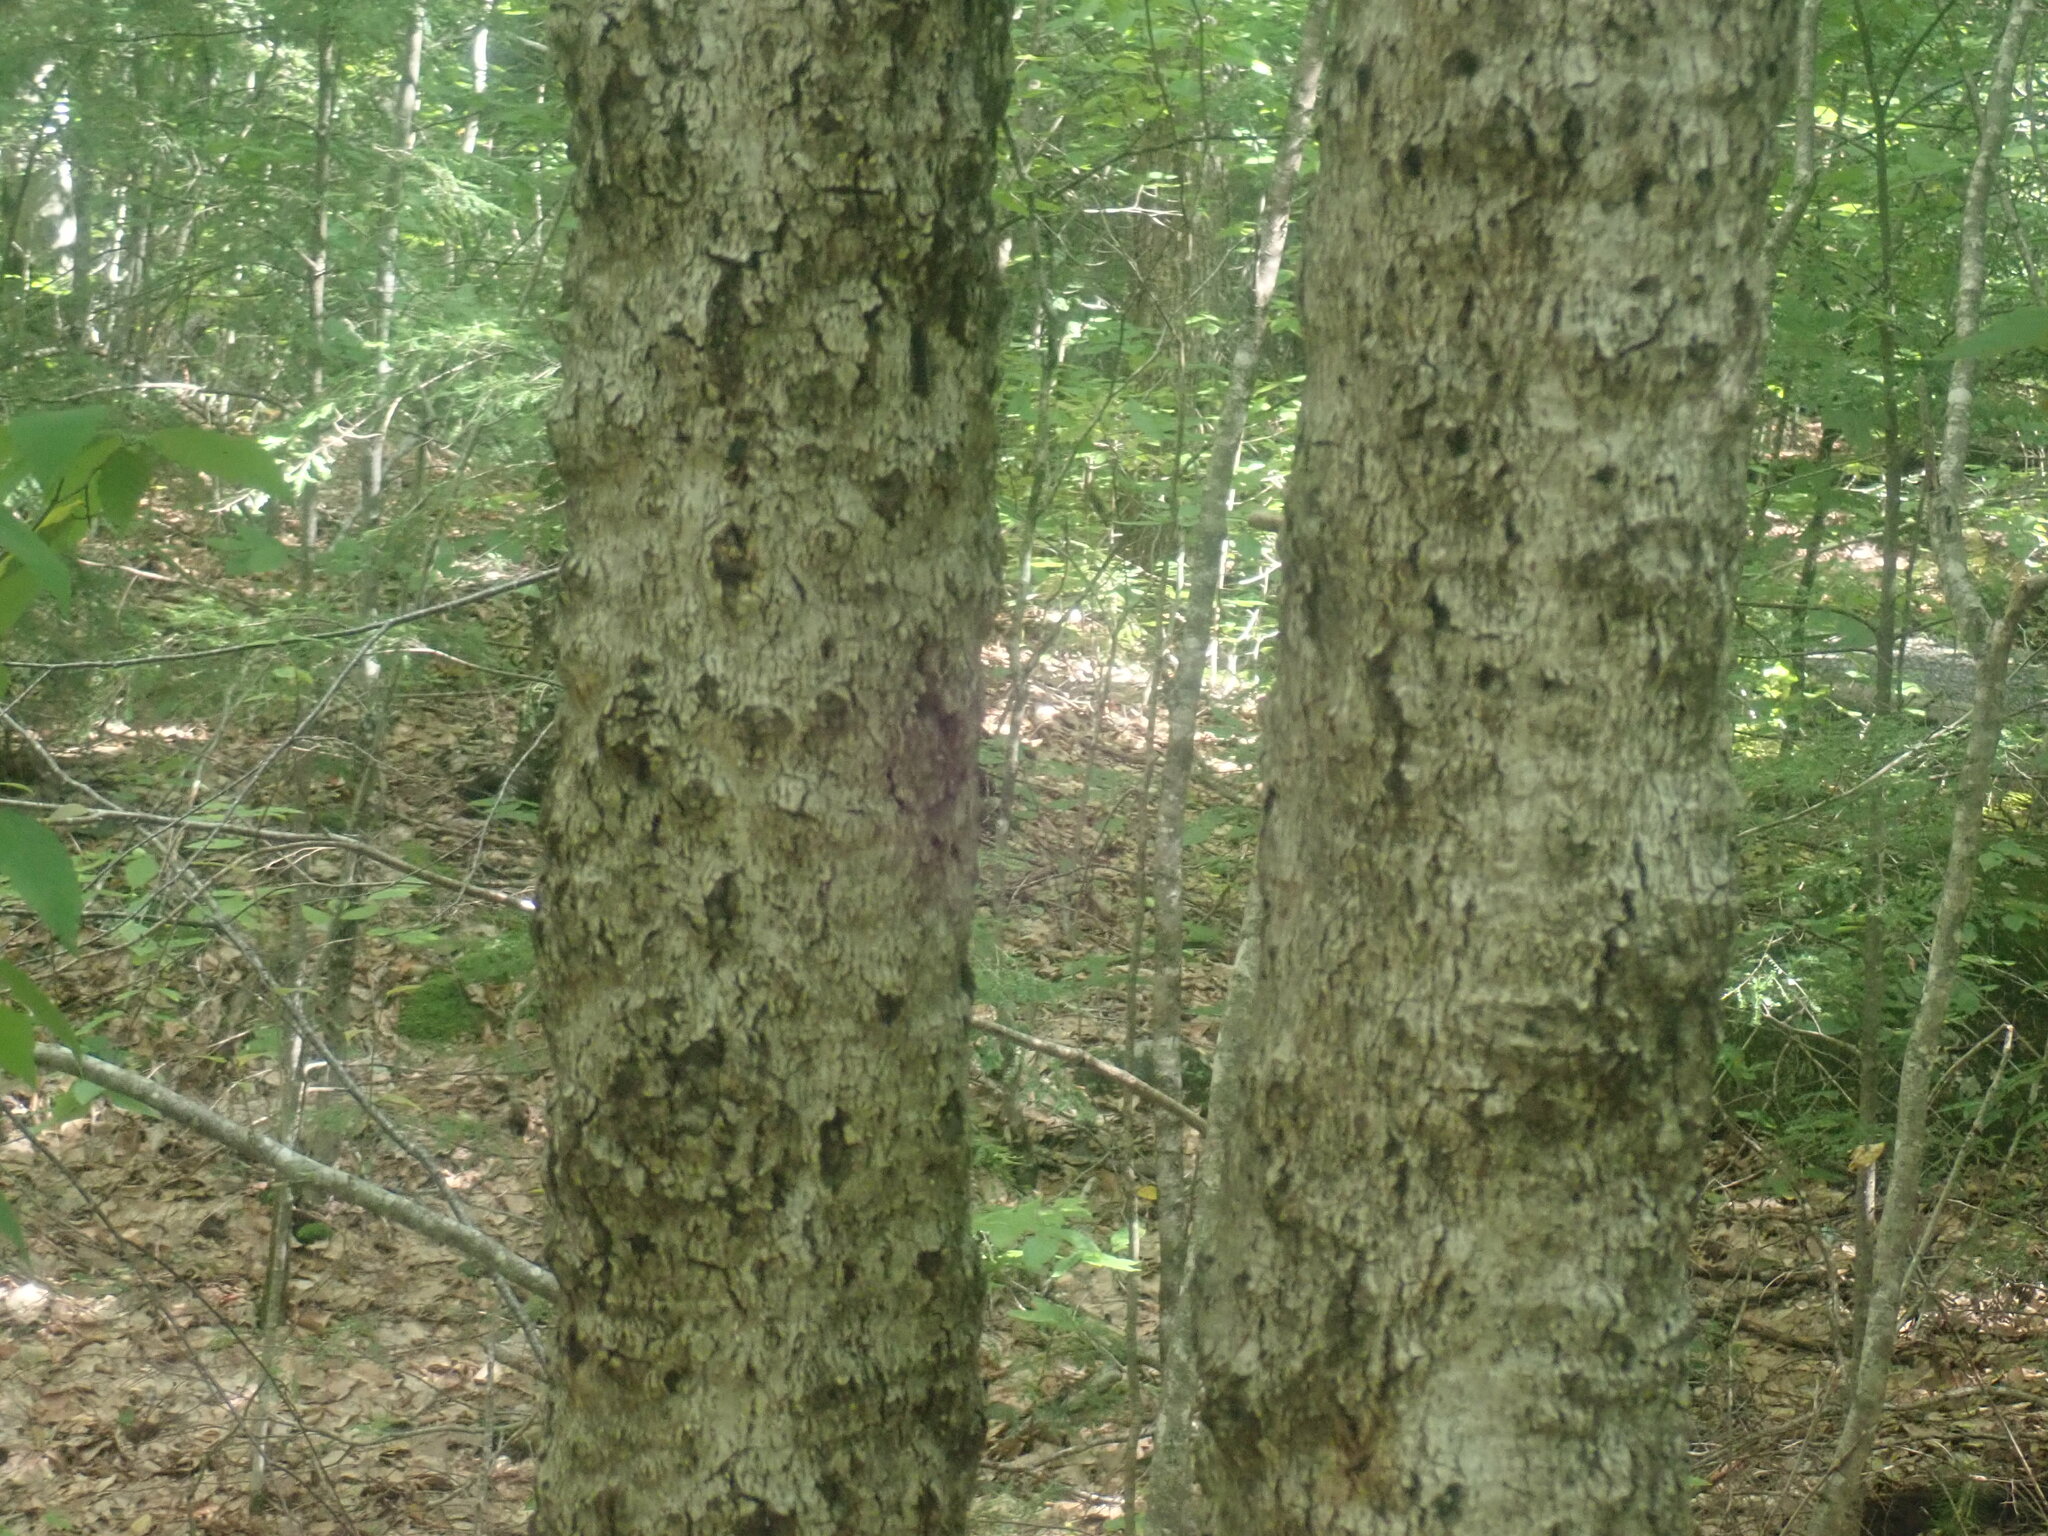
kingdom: Fungi
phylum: Ascomycota
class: Sordariomycetes
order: Hypocreales
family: Nectriaceae
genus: Neonectria
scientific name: Neonectria faginata
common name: Beech bark canker
